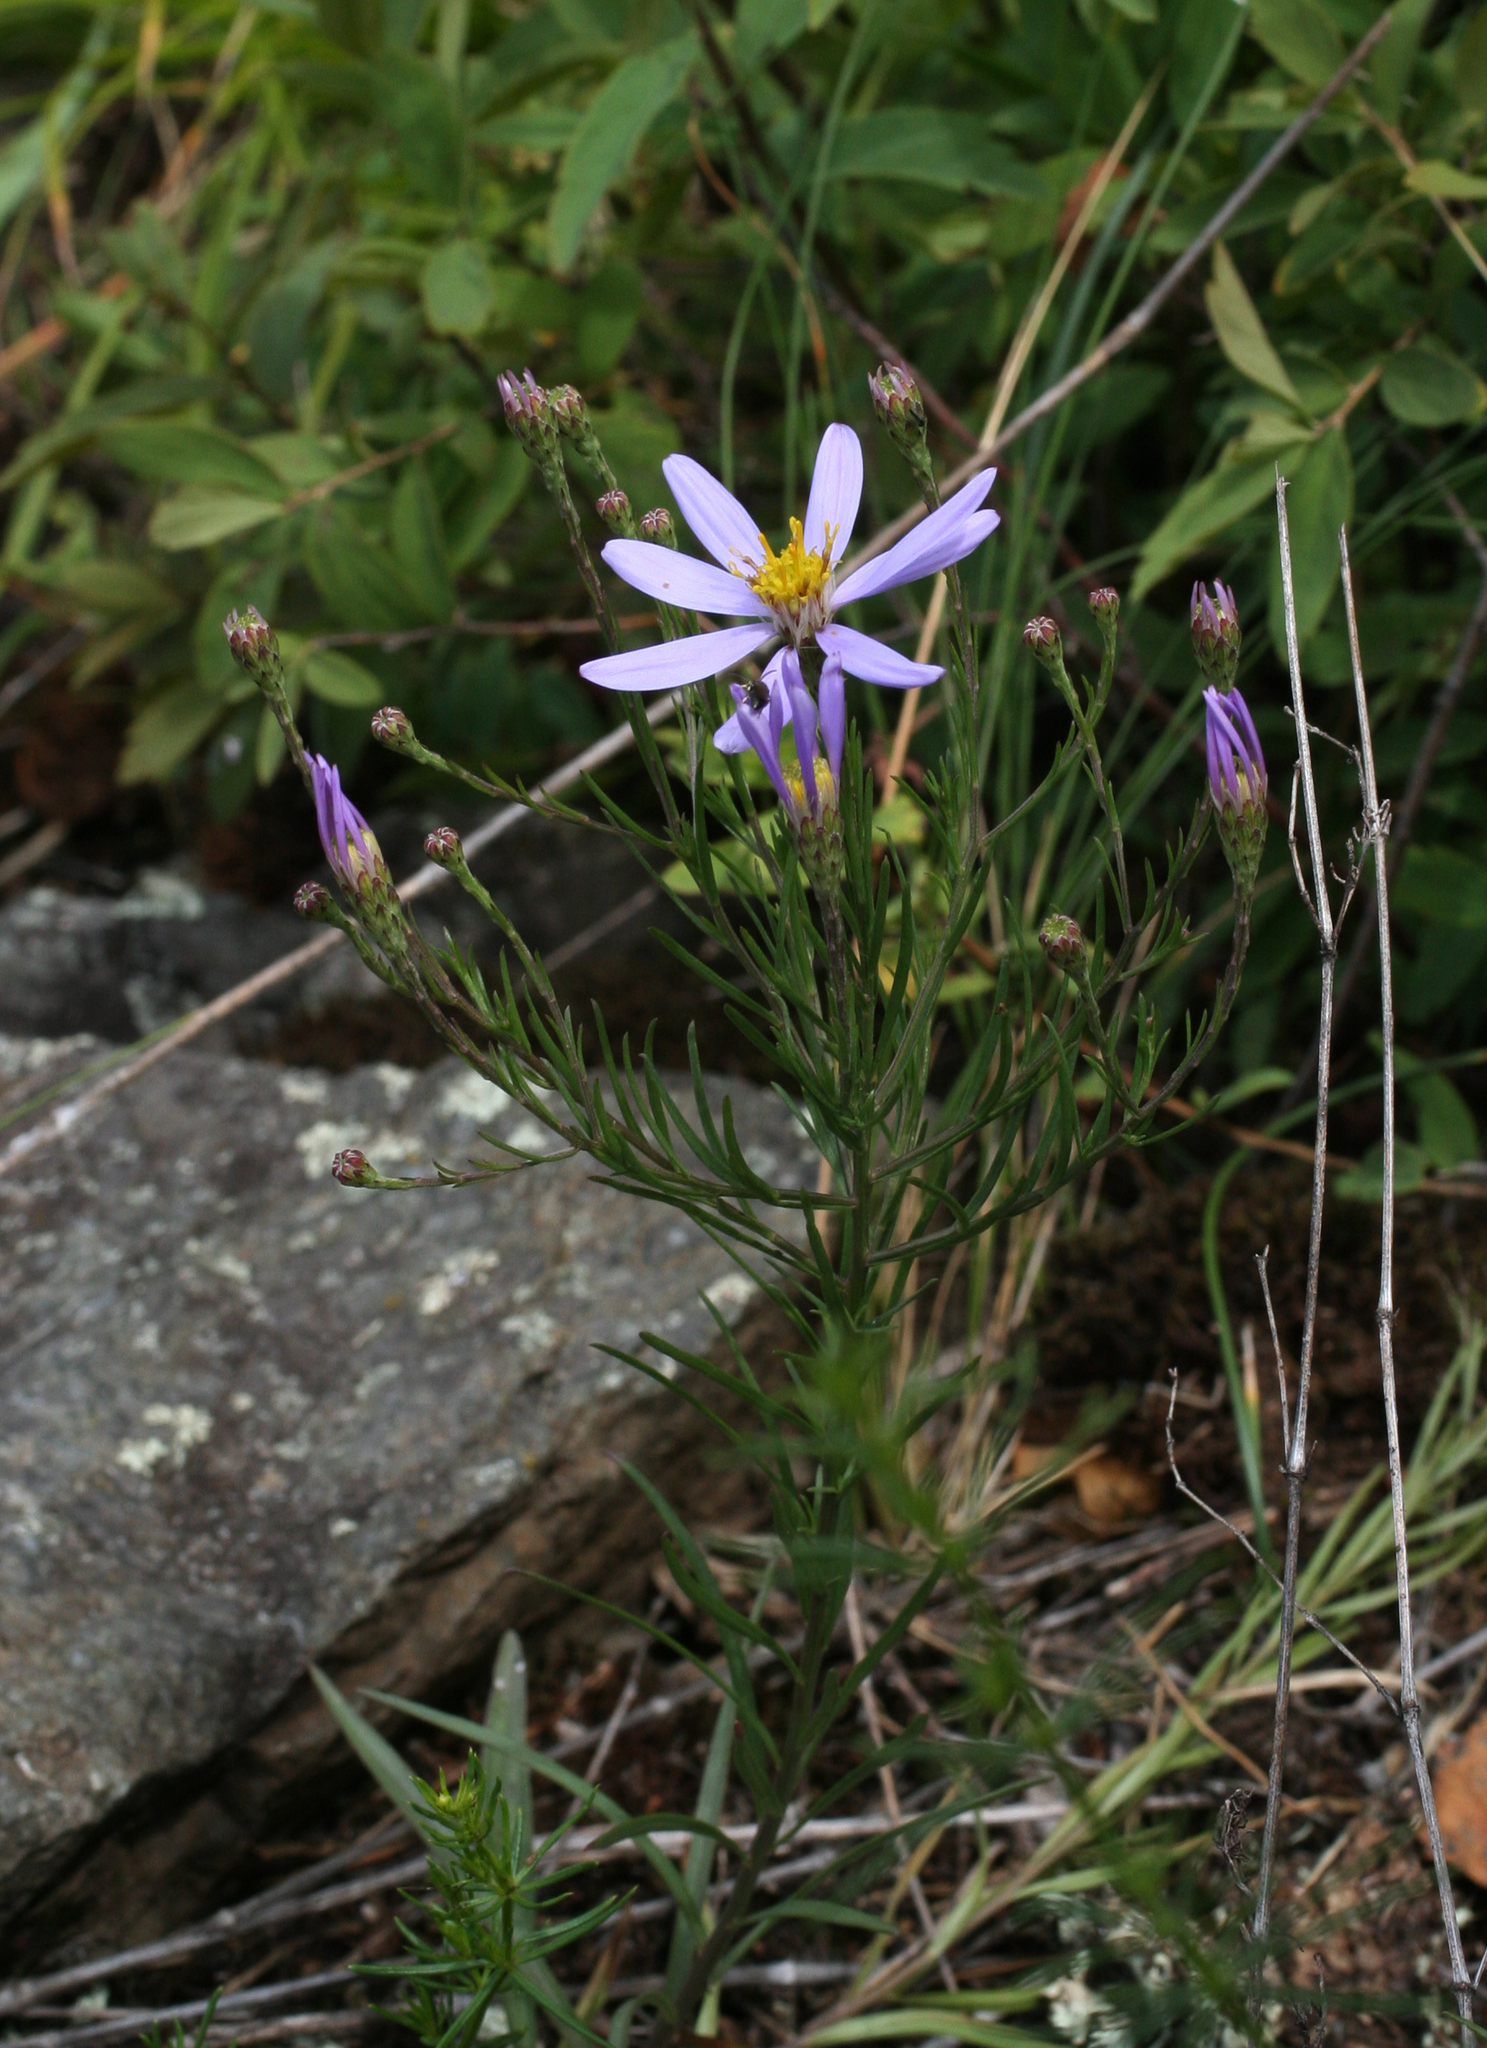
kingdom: Plantae
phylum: Tracheophyta
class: Magnoliopsida
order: Asterales
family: Asteraceae
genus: Galatella
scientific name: Galatella angustissima
